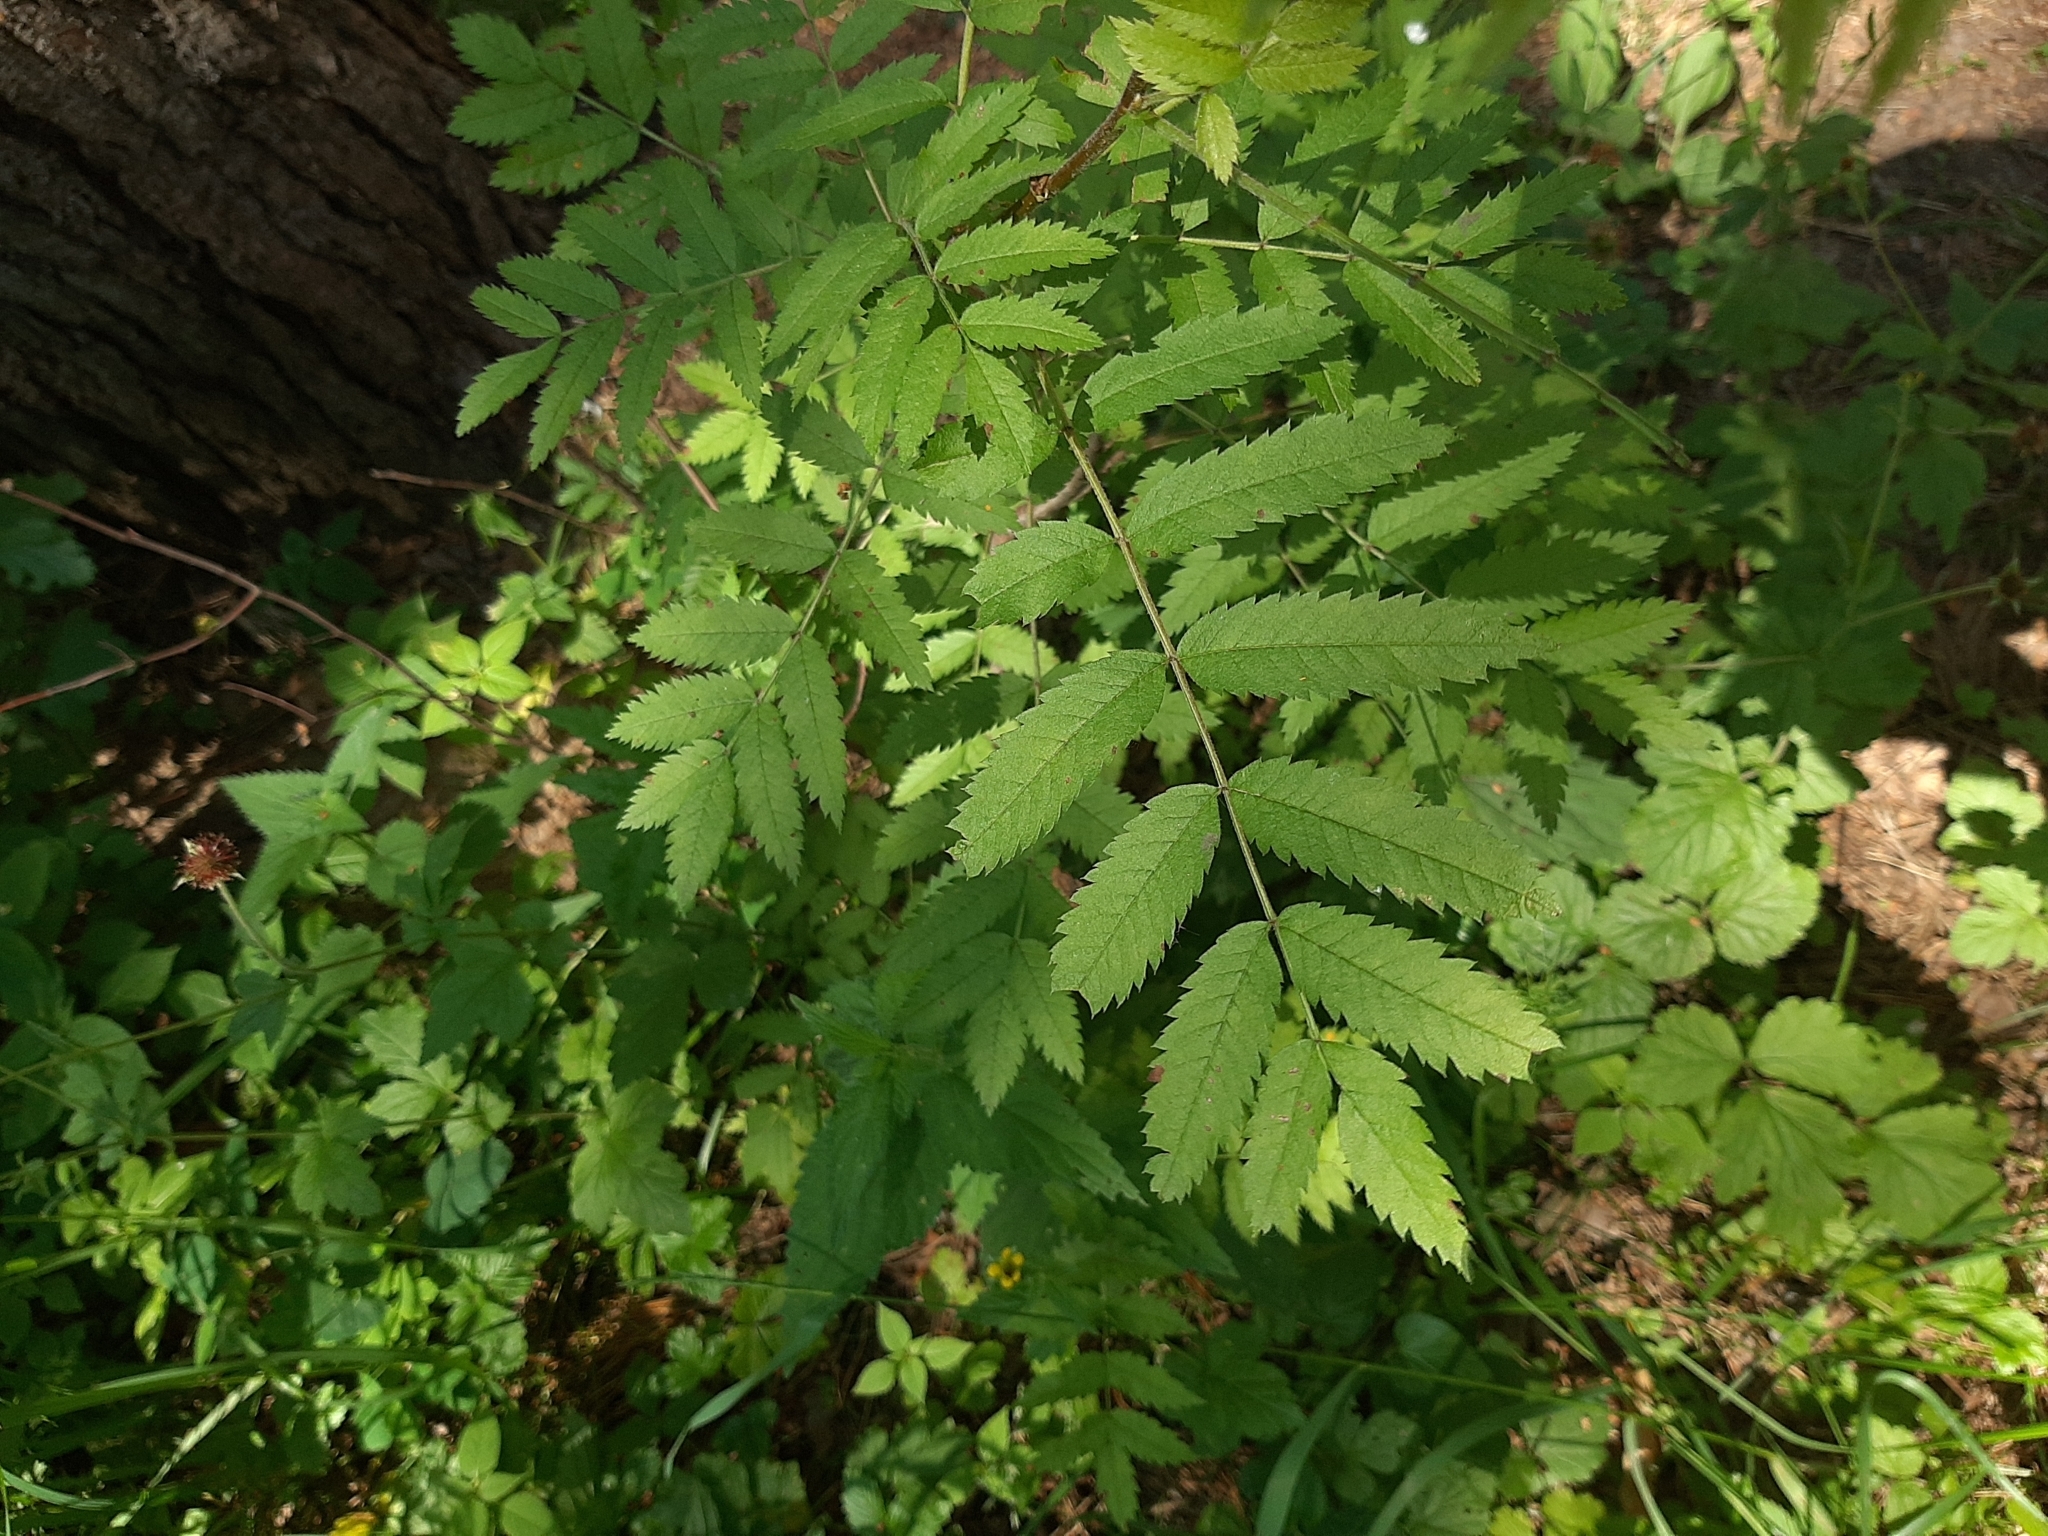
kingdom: Plantae
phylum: Tracheophyta
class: Magnoliopsida
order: Rosales
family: Rosaceae
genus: Sorbus
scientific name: Sorbus aucuparia
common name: Rowan
